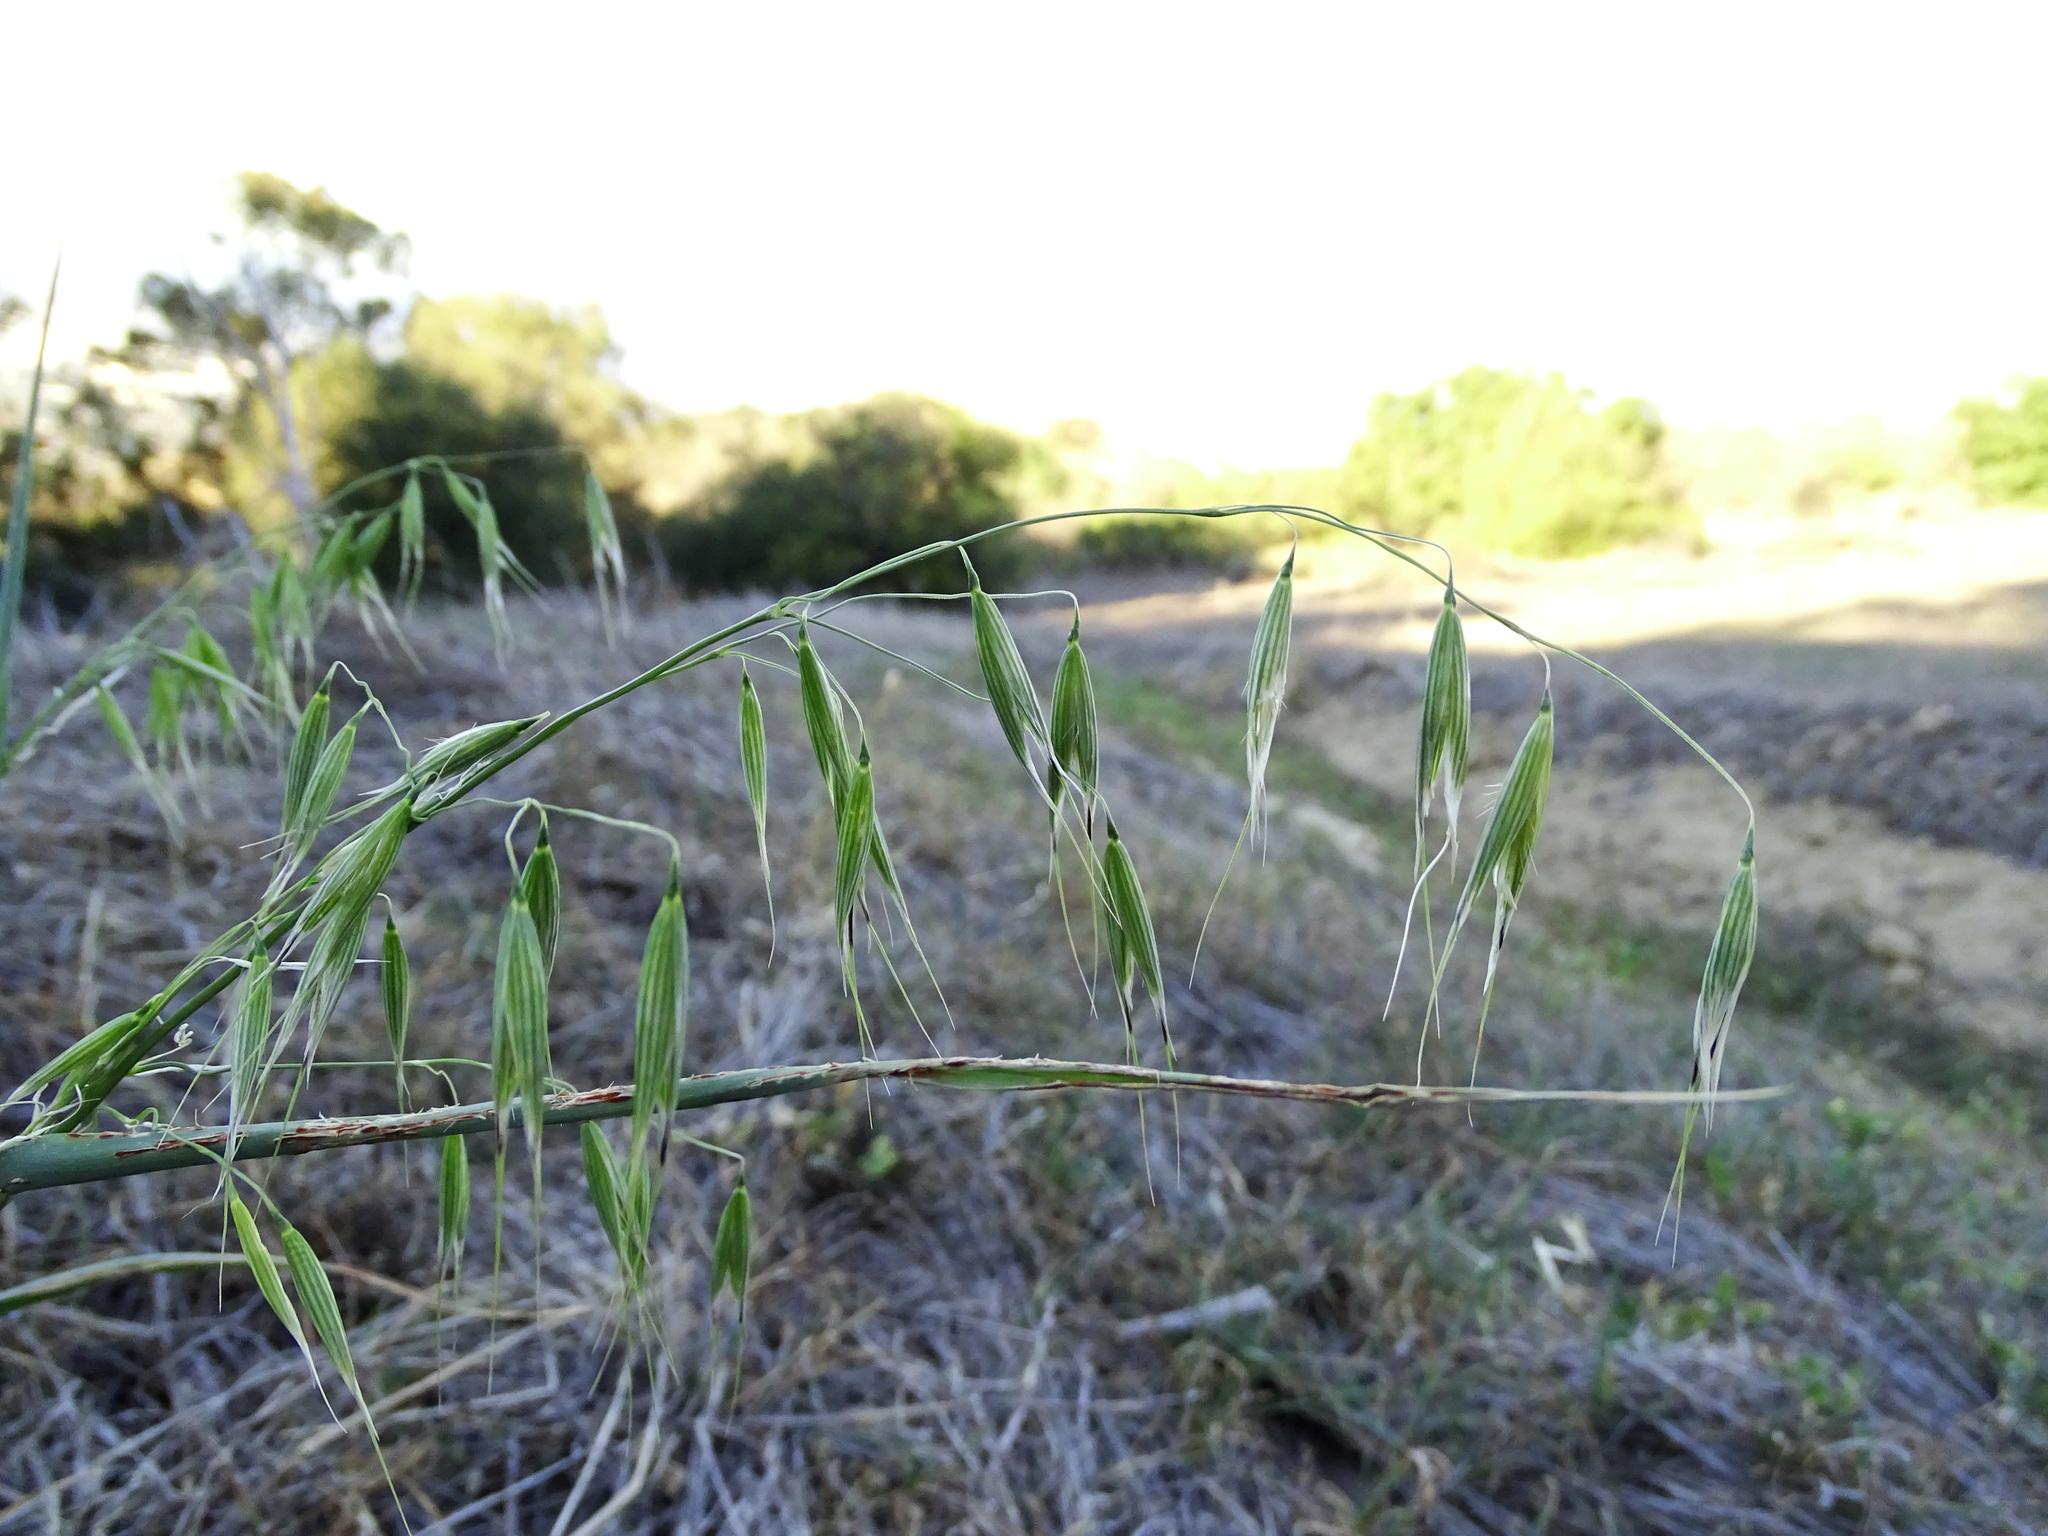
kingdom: Plantae
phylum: Tracheophyta
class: Liliopsida
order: Poales
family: Poaceae
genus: Avena
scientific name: Avena fatua
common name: Wild oat
